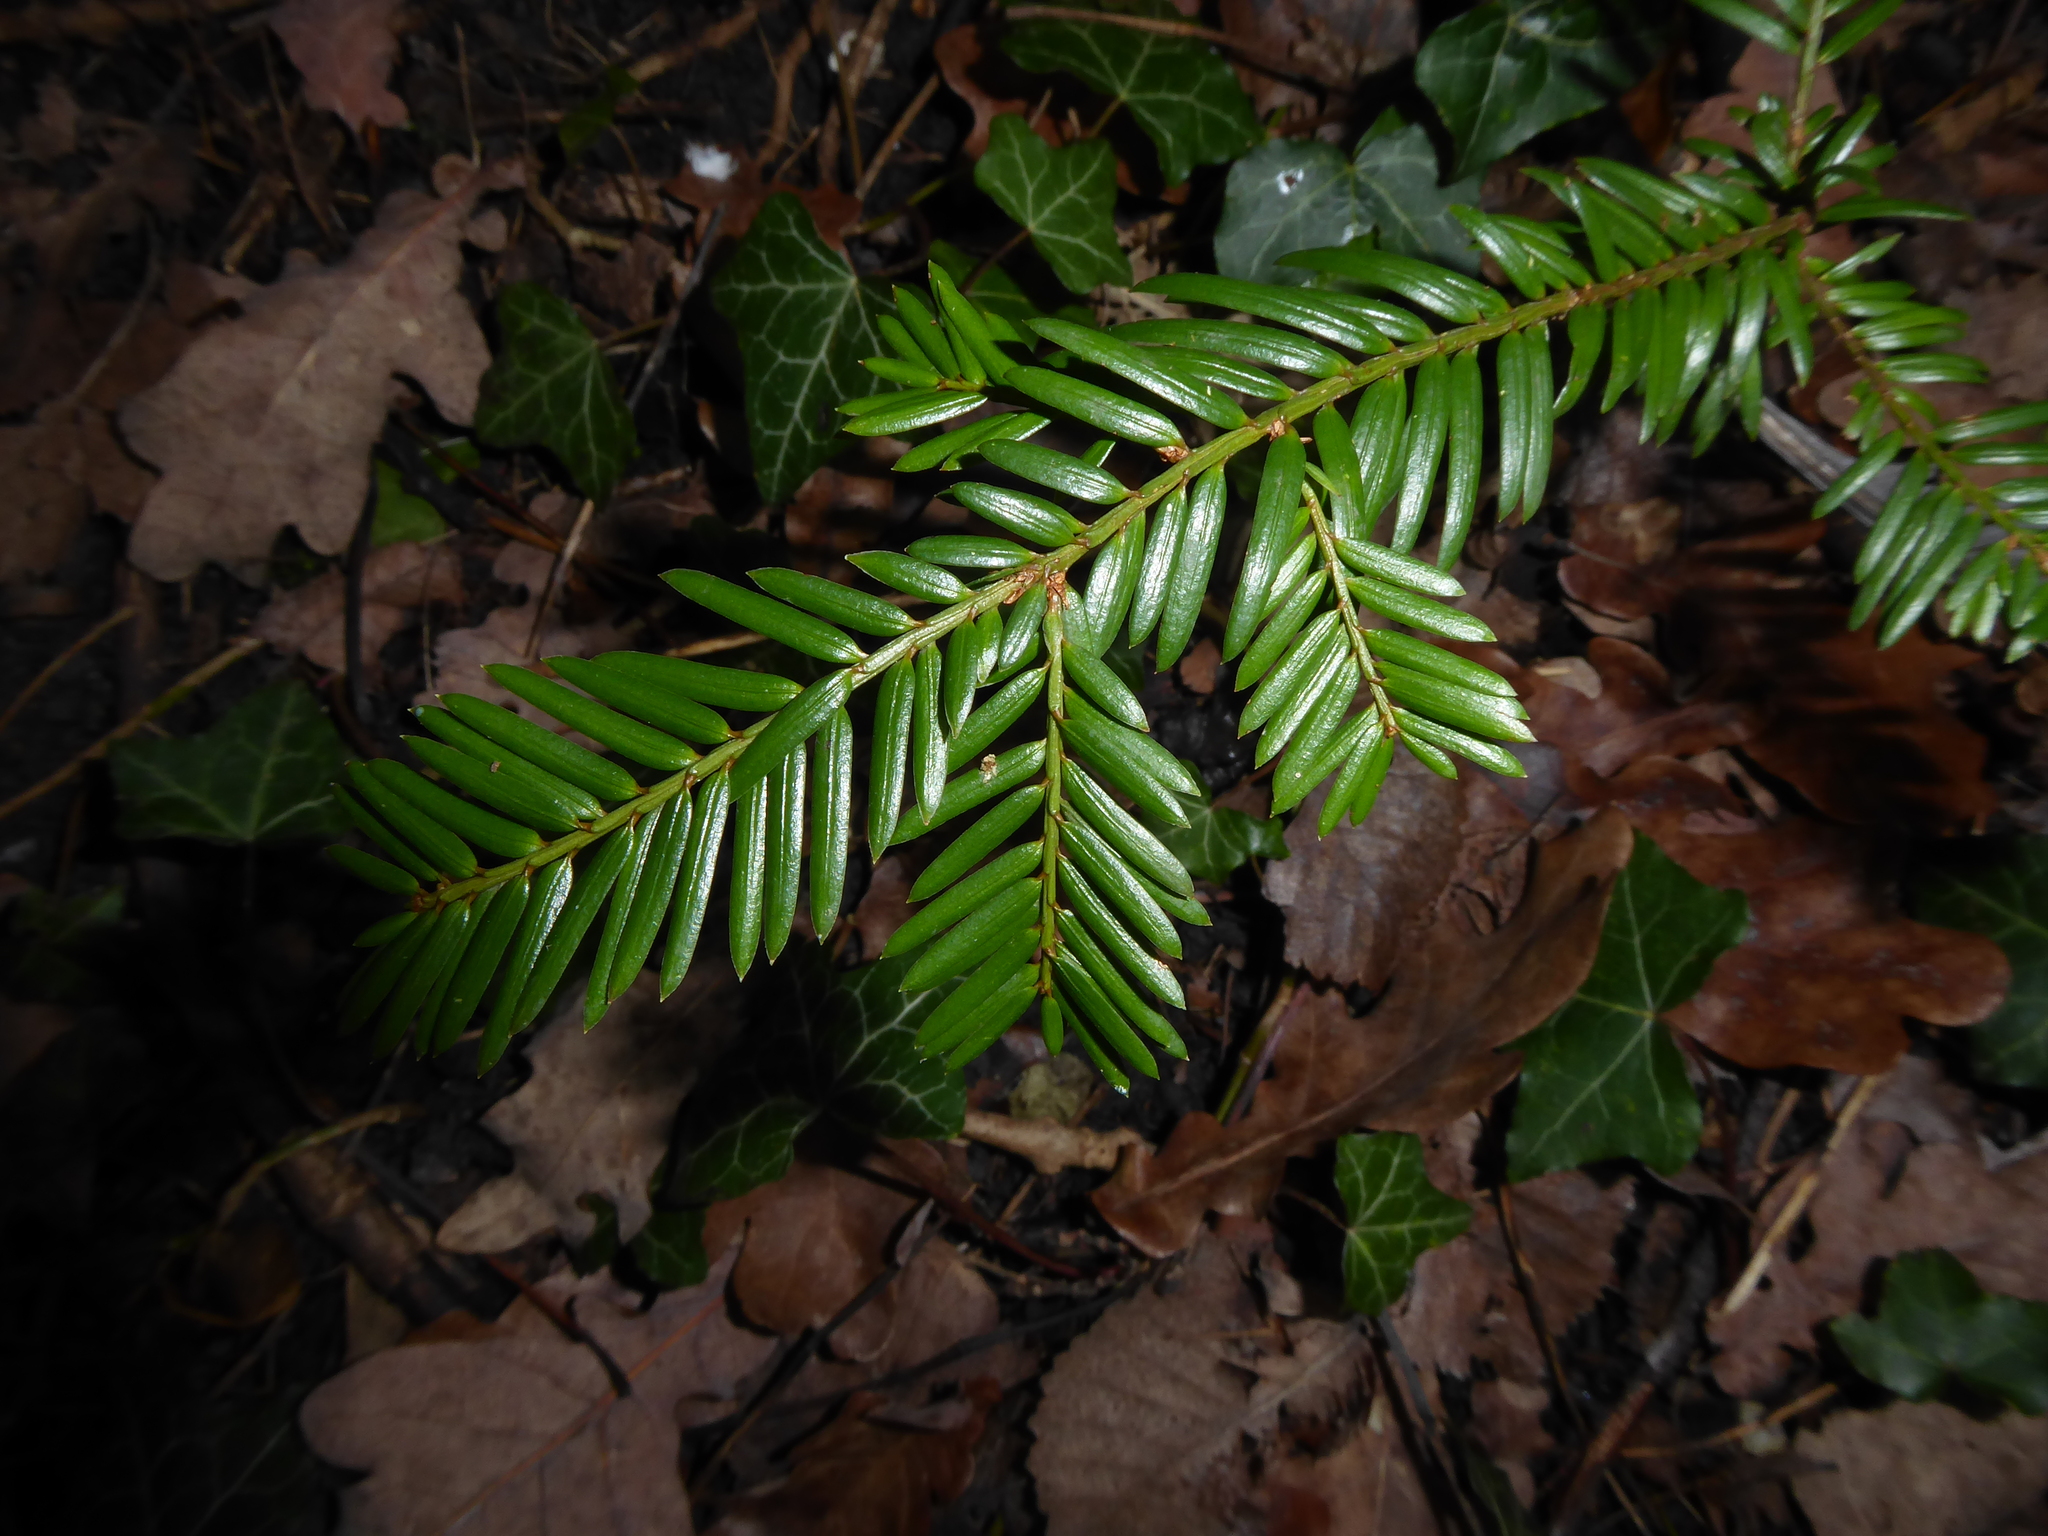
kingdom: Plantae
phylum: Tracheophyta
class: Pinopsida
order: Pinales
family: Taxaceae
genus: Taxus
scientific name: Taxus baccata
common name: Yew
